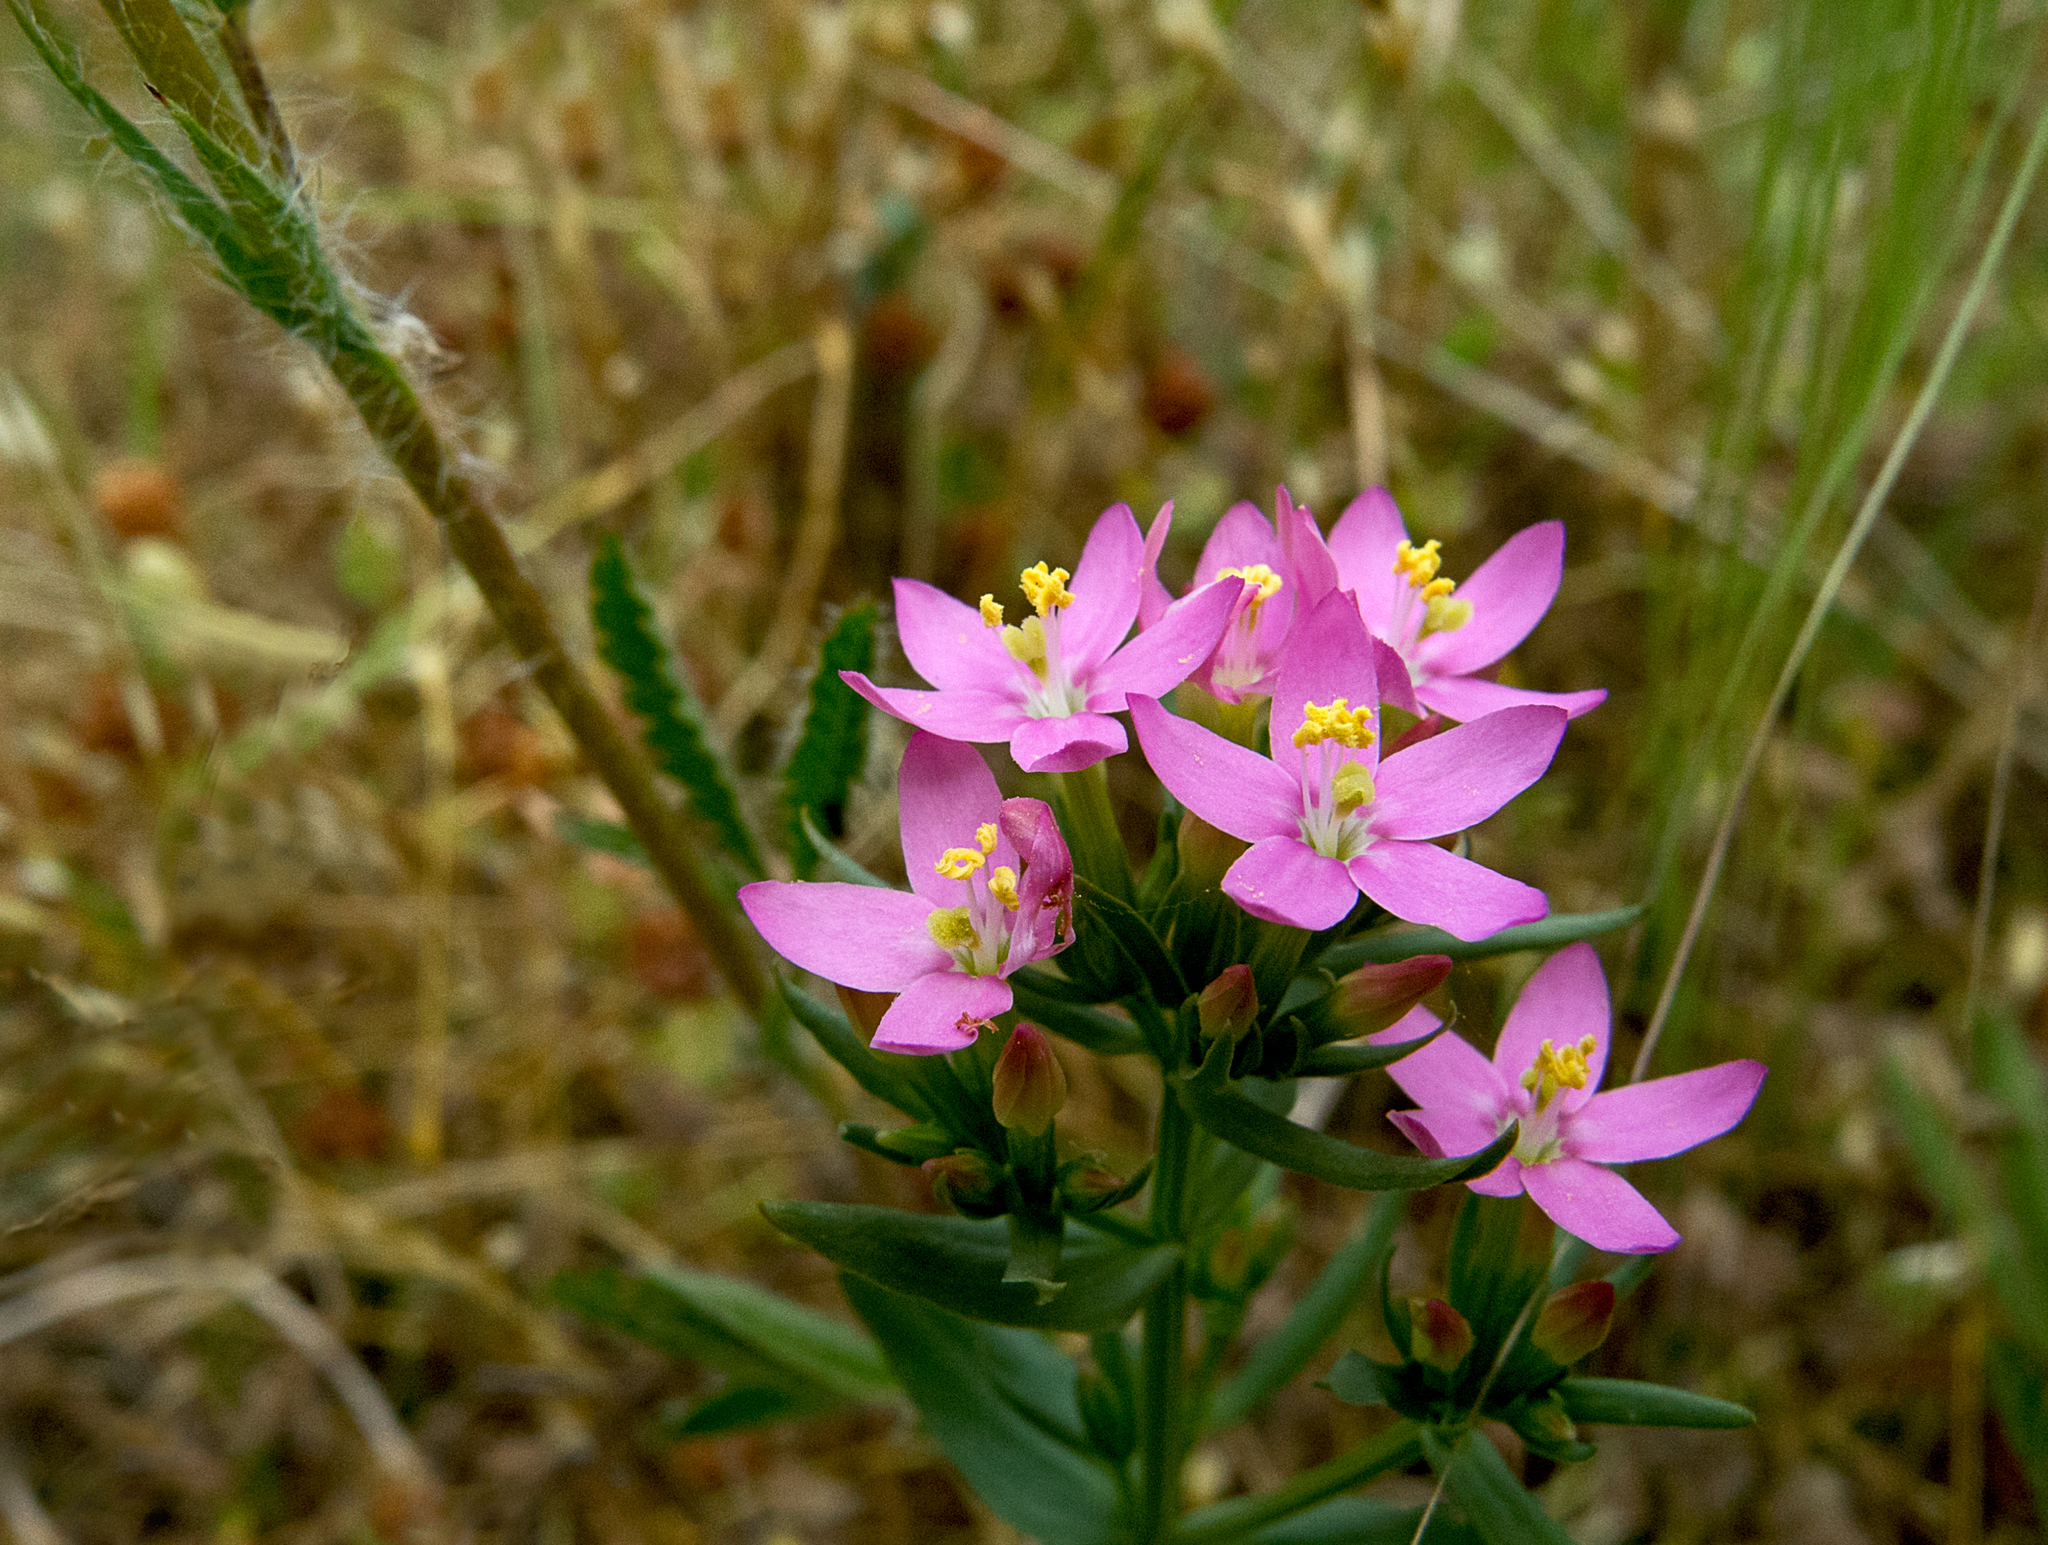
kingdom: Plantae
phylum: Tracheophyta
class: Magnoliopsida
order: Gentianales
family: Gentianaceae
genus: Centaurium
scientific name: Centaurium erythraea
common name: Common centaury
